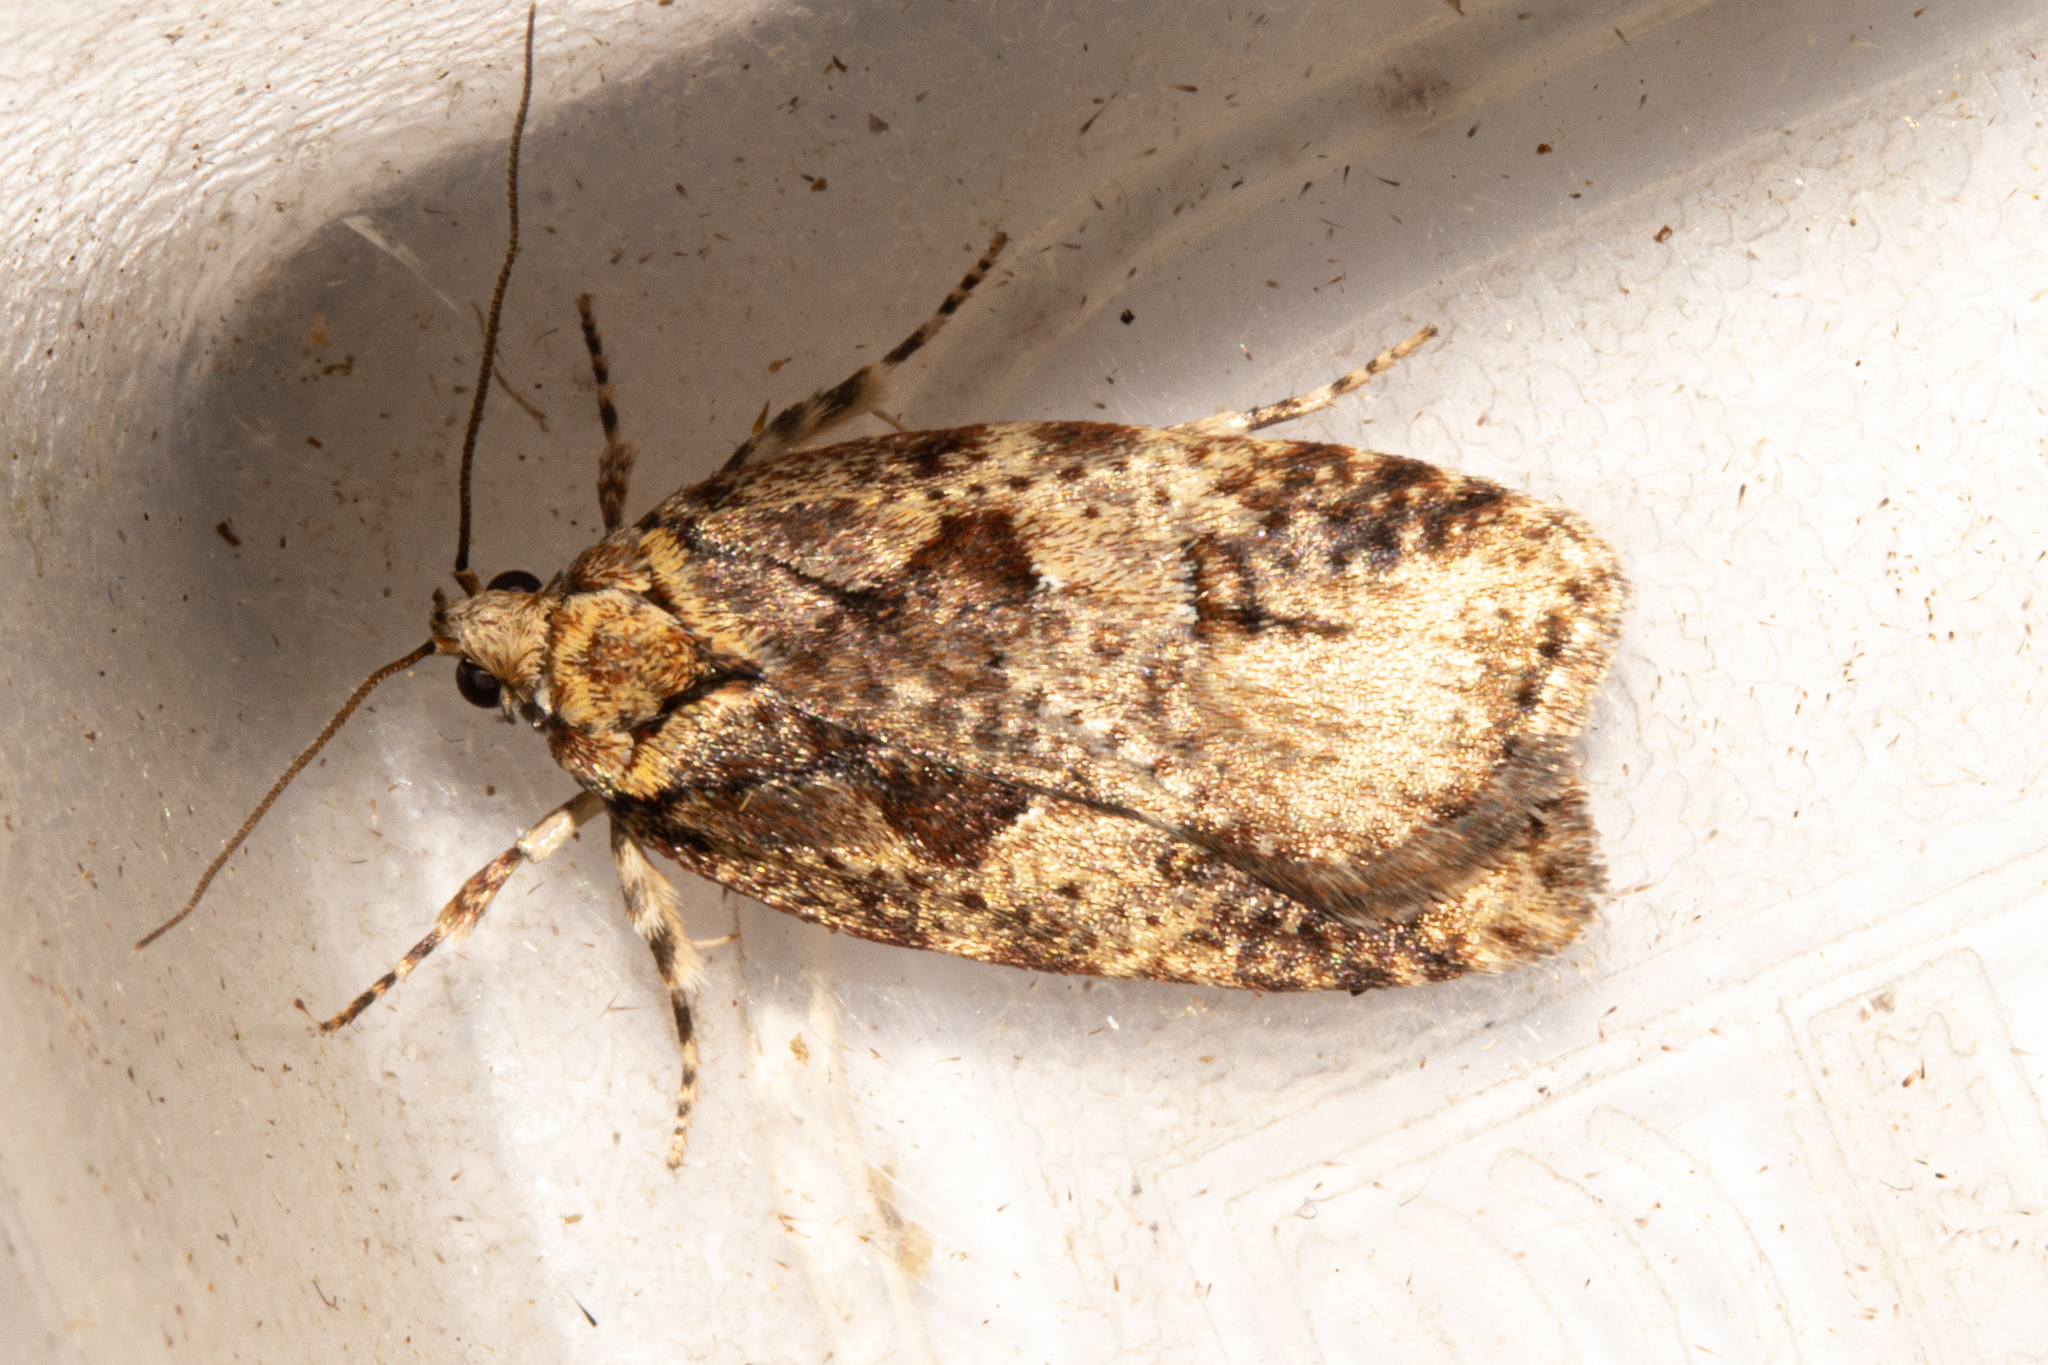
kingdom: Animalia
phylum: Arthropoda
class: Insecta
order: Lepidoptera
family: Oecophoridae
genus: Proteodes
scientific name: Proteodes profunda
